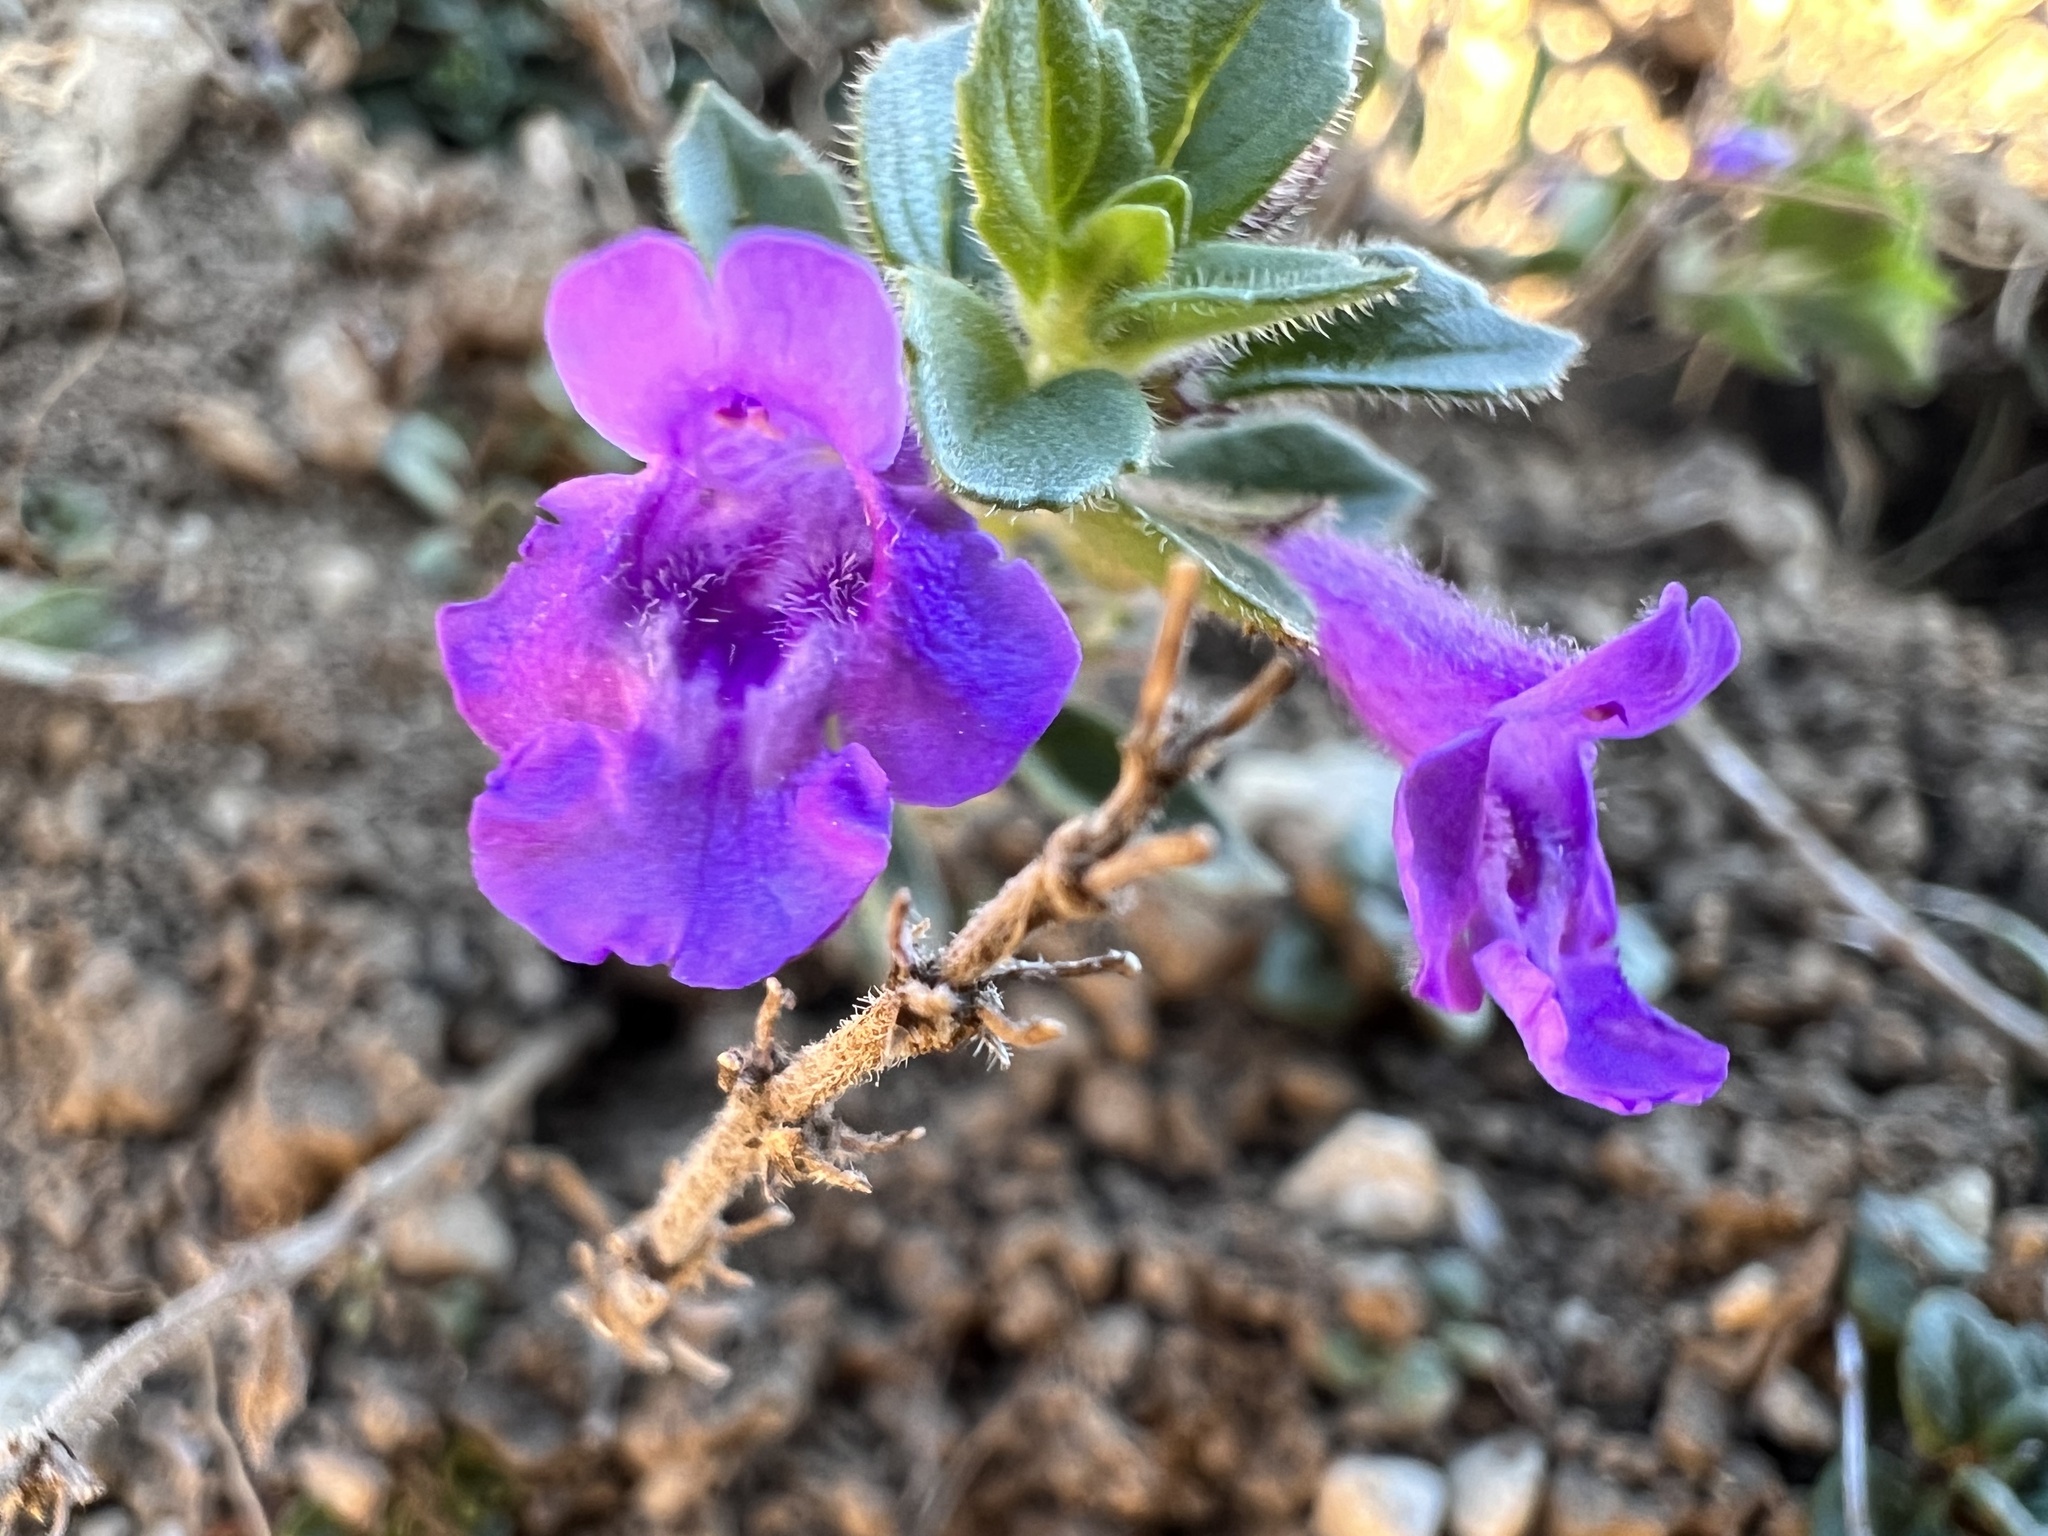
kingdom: Plantae
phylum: Tracheophyta
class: Magnoliopsida
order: Lamiales
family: Lamiaceae
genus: Clinopodium
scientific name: Clinopodium alpinum
